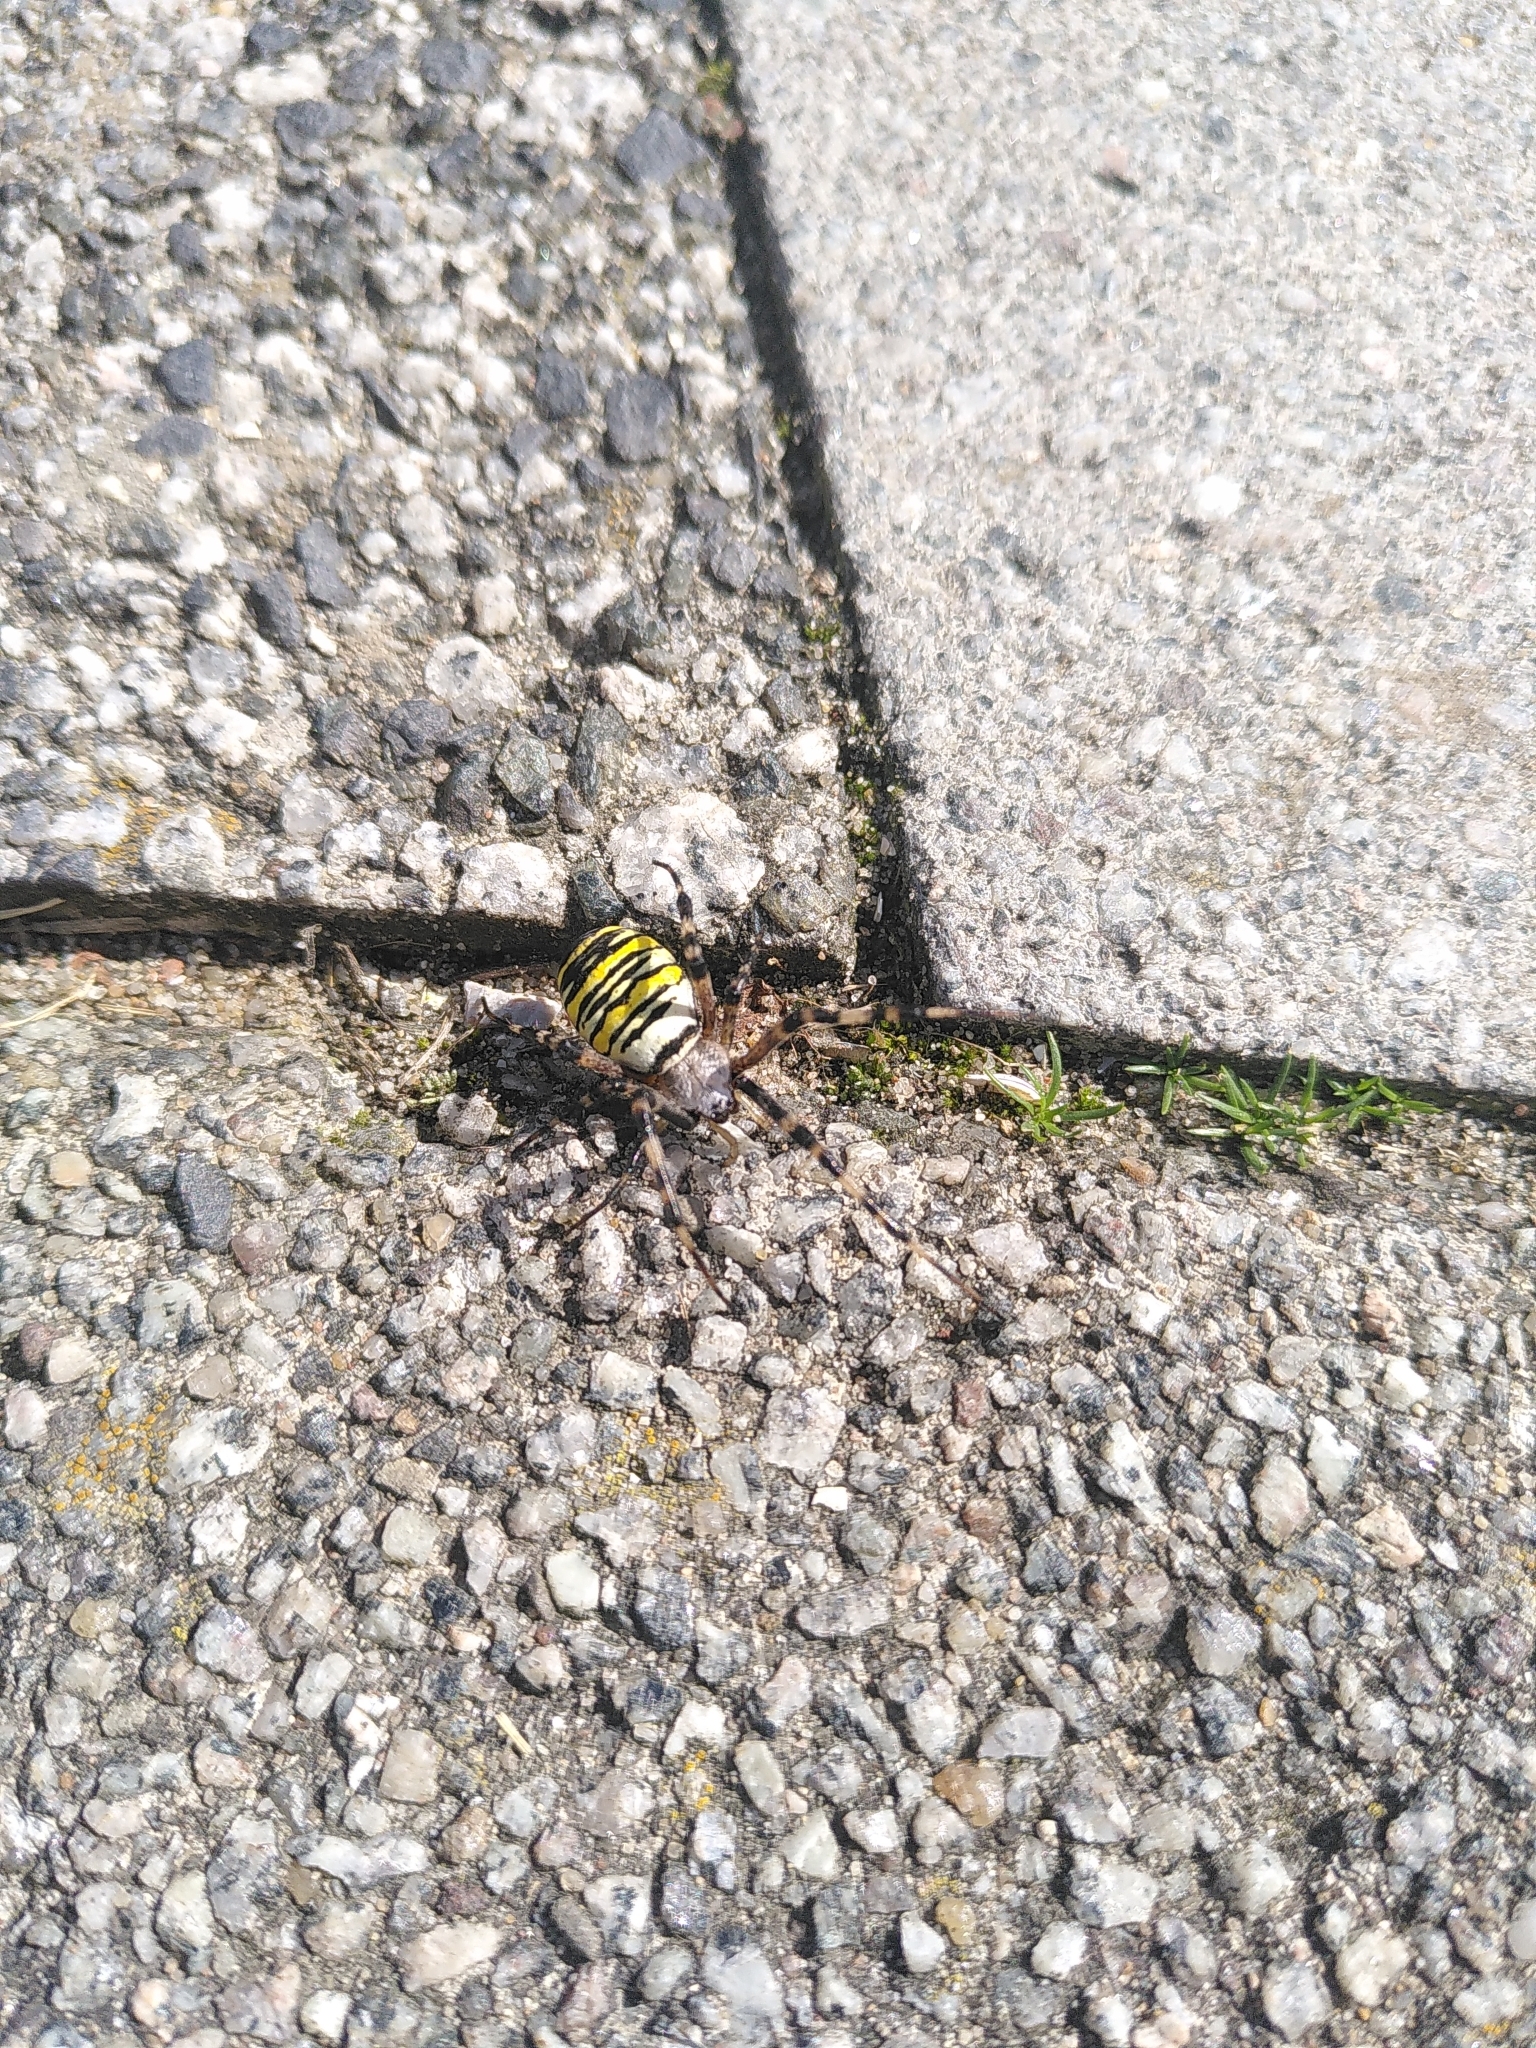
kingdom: Animalia
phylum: Arthropoda
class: Arachnida
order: Araneae
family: Araneidae
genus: Argiope
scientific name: Argiope bruennichi
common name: Wasp spider
